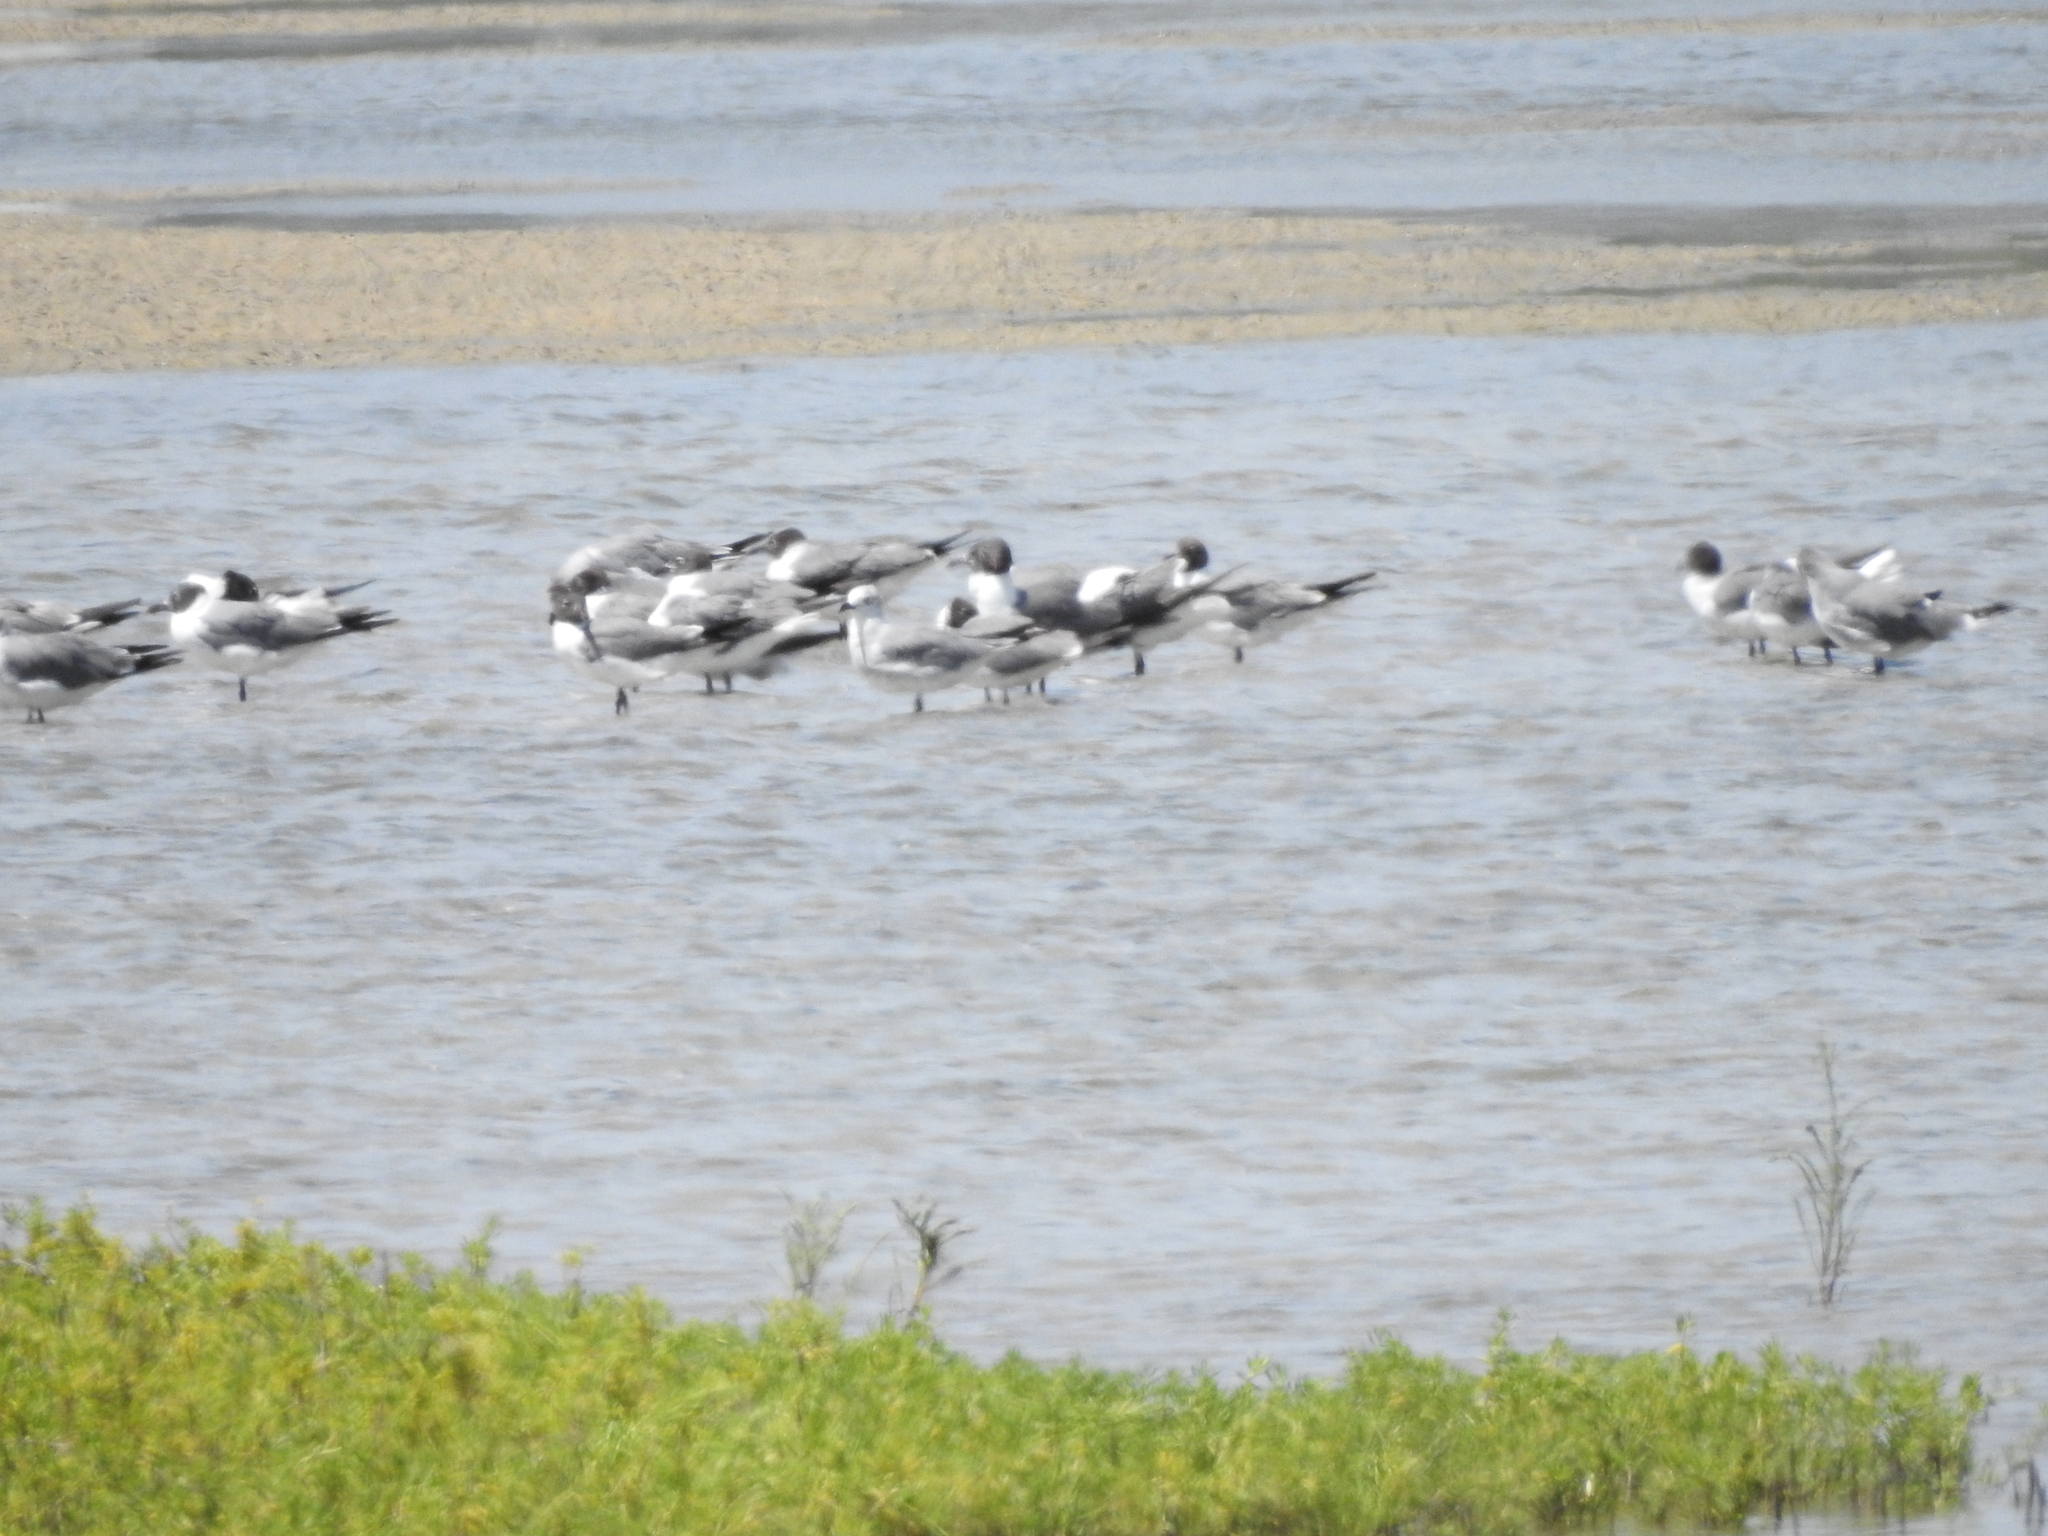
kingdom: Animalia
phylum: Chordata
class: Aves
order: Charadriiformes
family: Laridae
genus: Leucophaeus
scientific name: Leucophaeus atricilla
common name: Laughing gull
